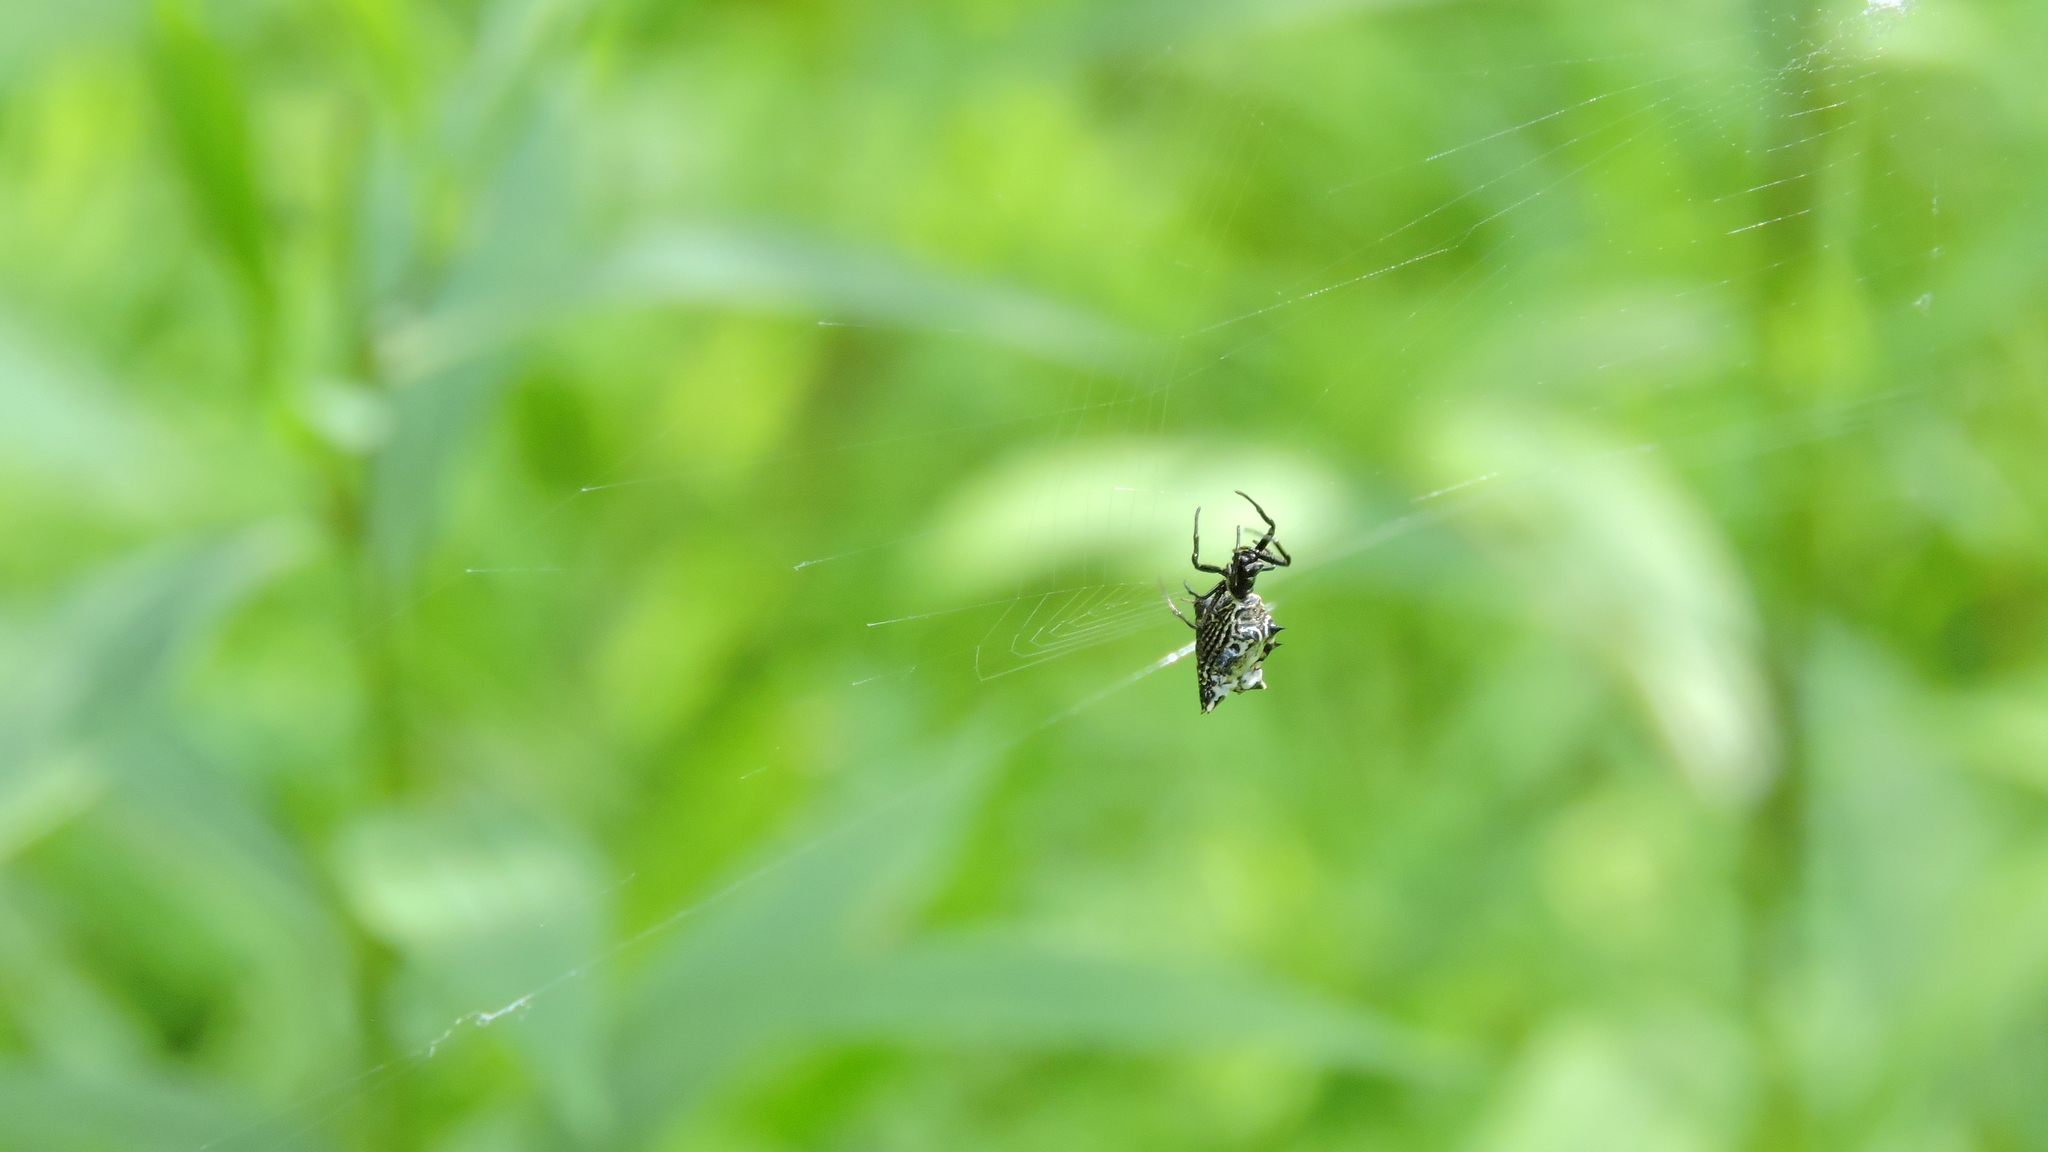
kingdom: Animalia
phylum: Arthropoda
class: Arachnida
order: Araneae
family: Araneidae
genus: Micrathena
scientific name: Micrathena gracilis
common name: Orb weavers
